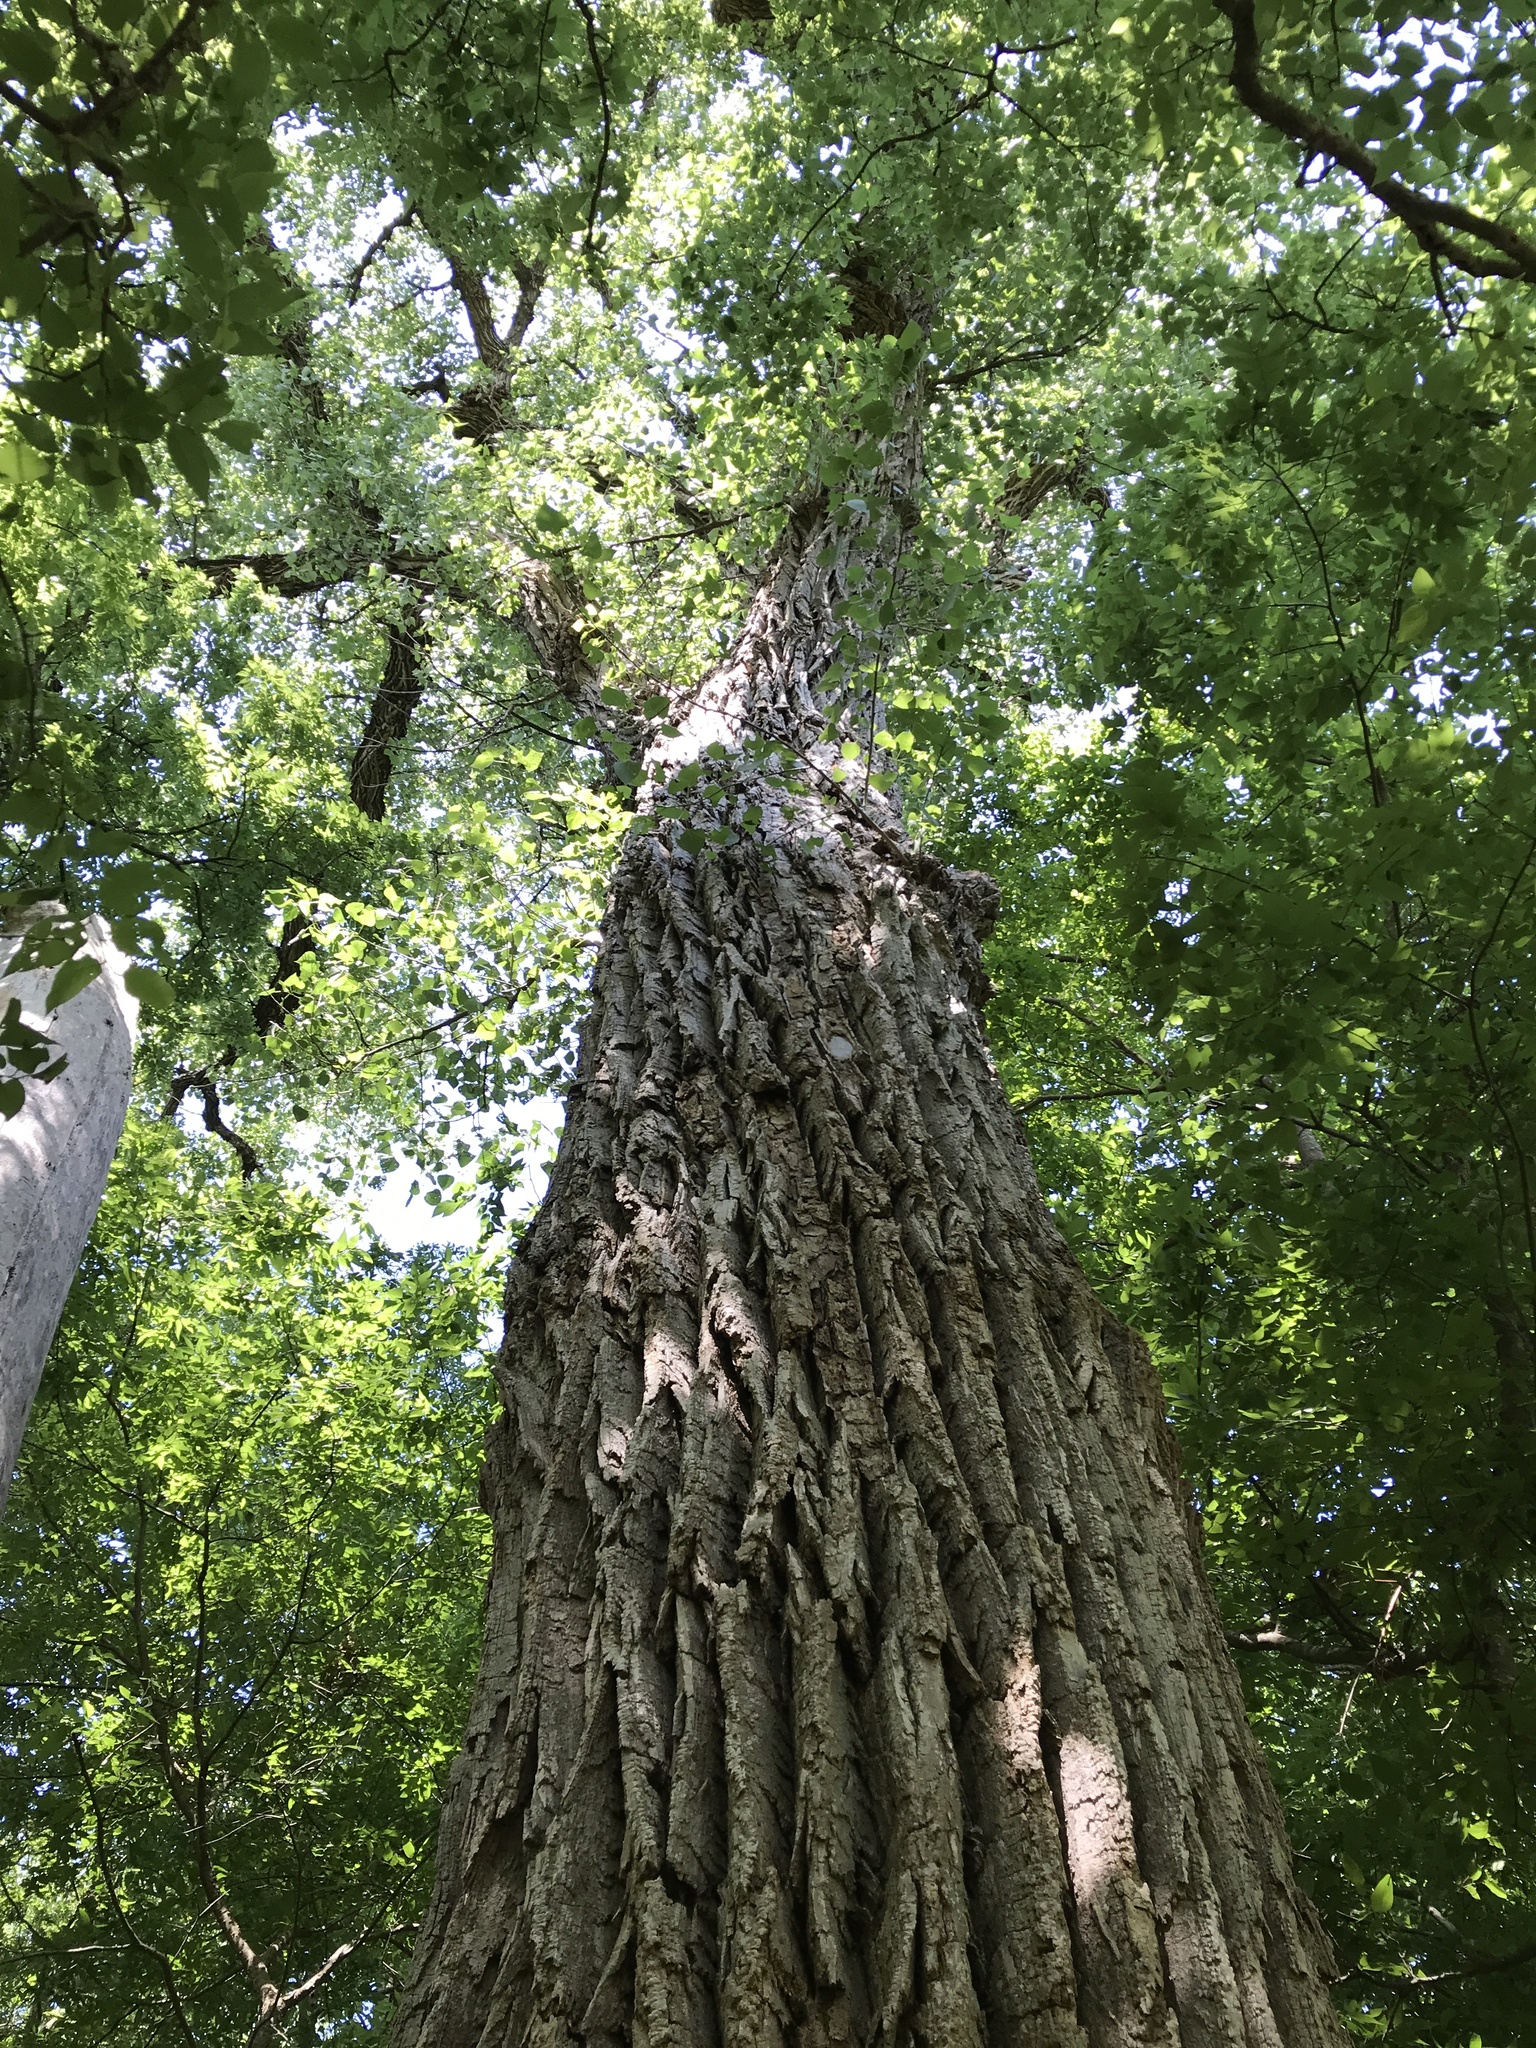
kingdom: Plantae
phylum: Tracheophyta
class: Magnoliopsida
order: Malpighiales
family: Salicaceae
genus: Populus
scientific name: Populus deltoides
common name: Eastern cottonwood
